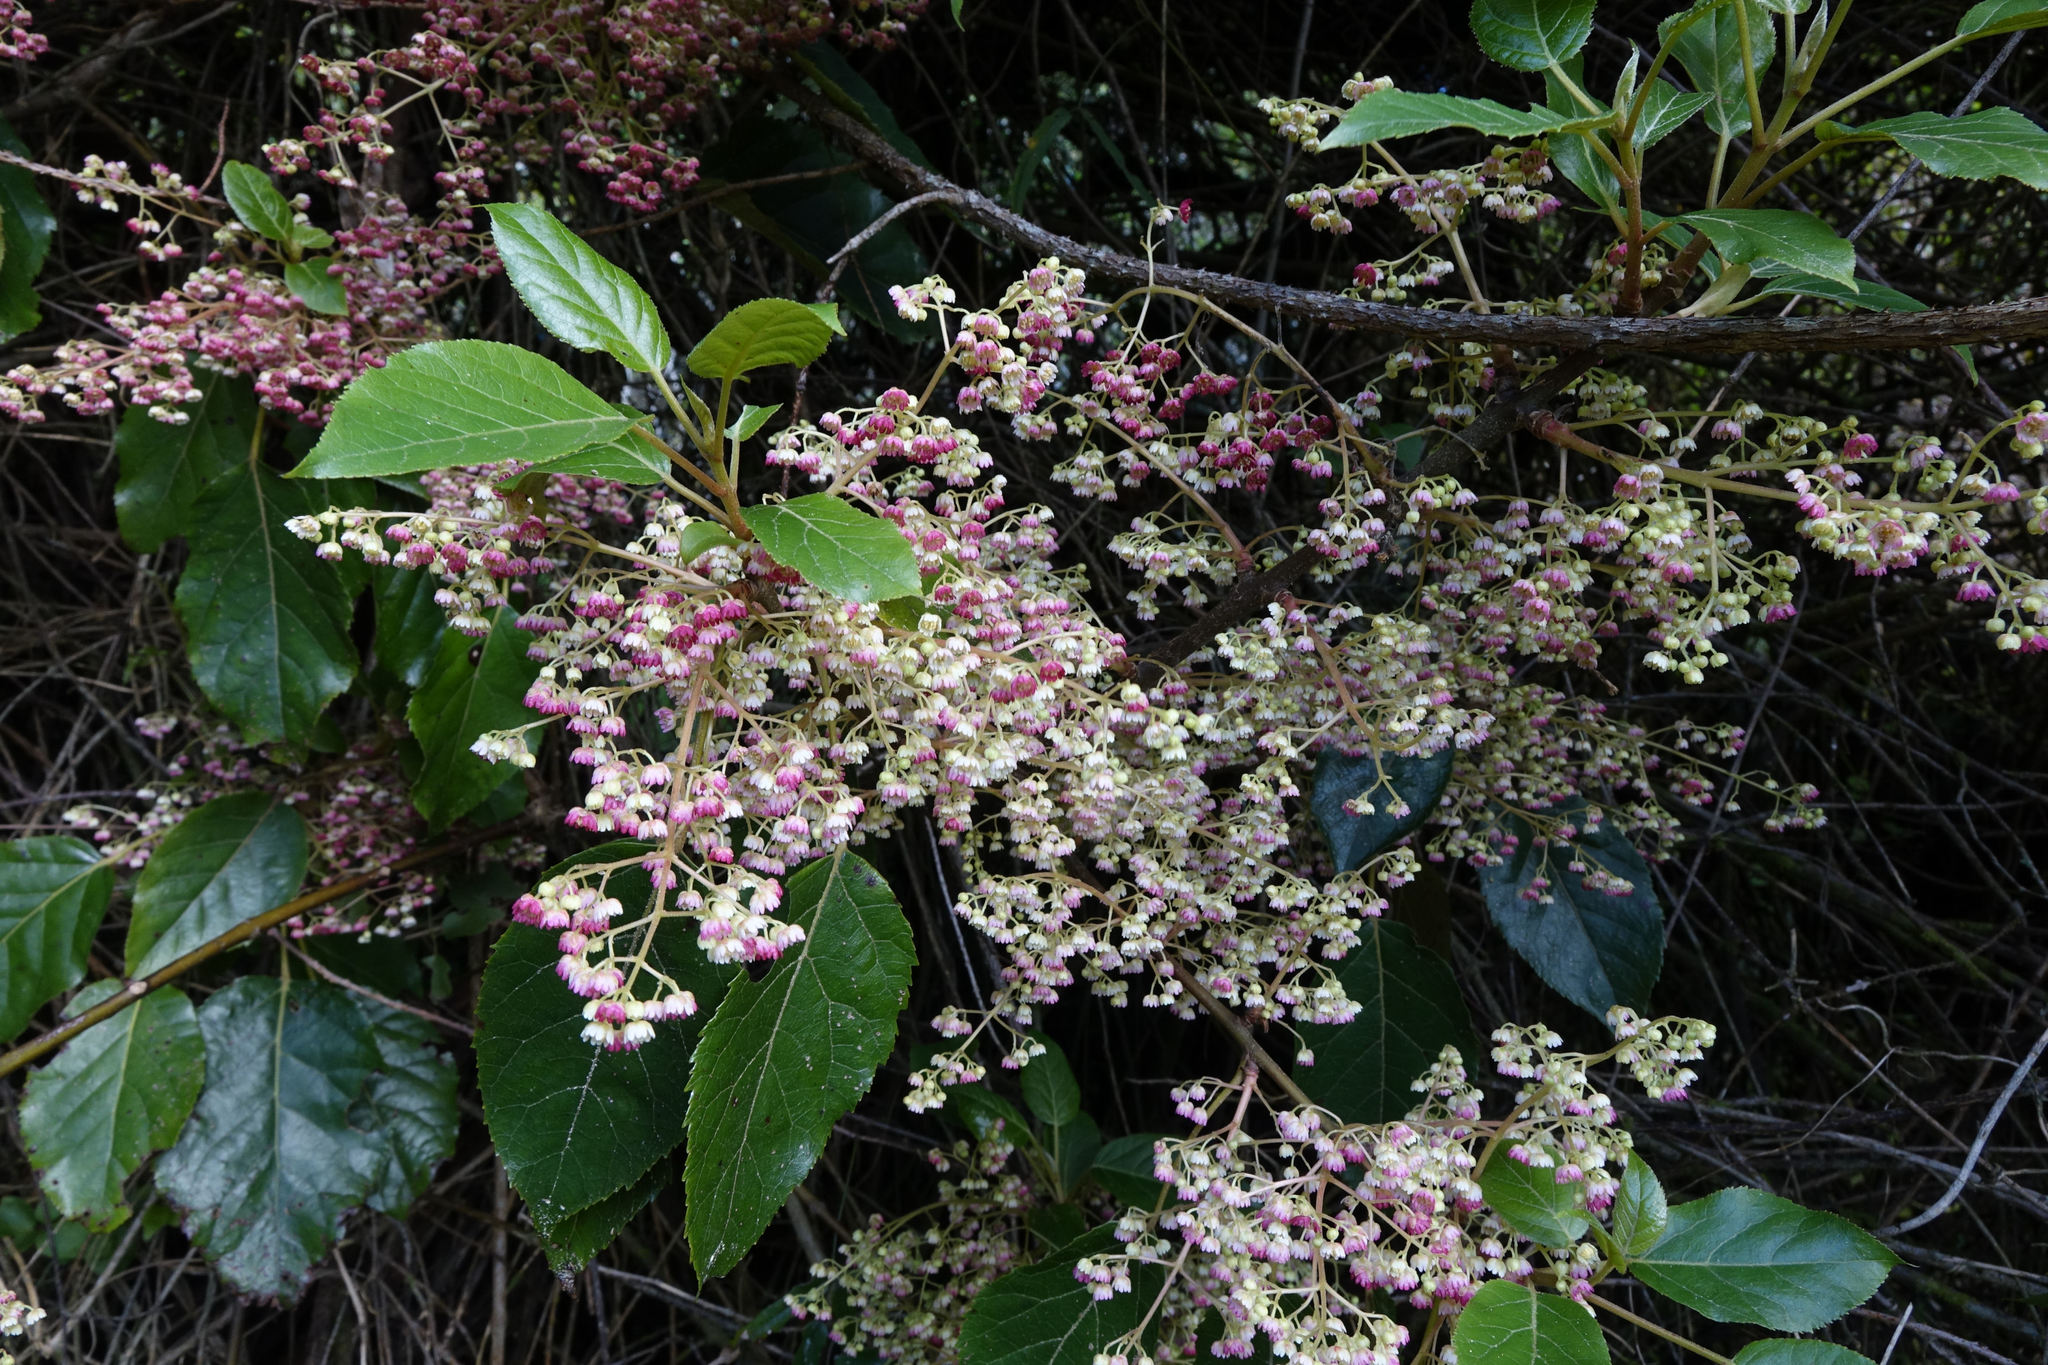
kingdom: Plantae
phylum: Tracheophyta
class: Magnoliopsida
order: Oxalidales
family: Elaeocarpaceae
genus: Aristotelia
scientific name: Aristotelia serrata
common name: New zealand wineberry
